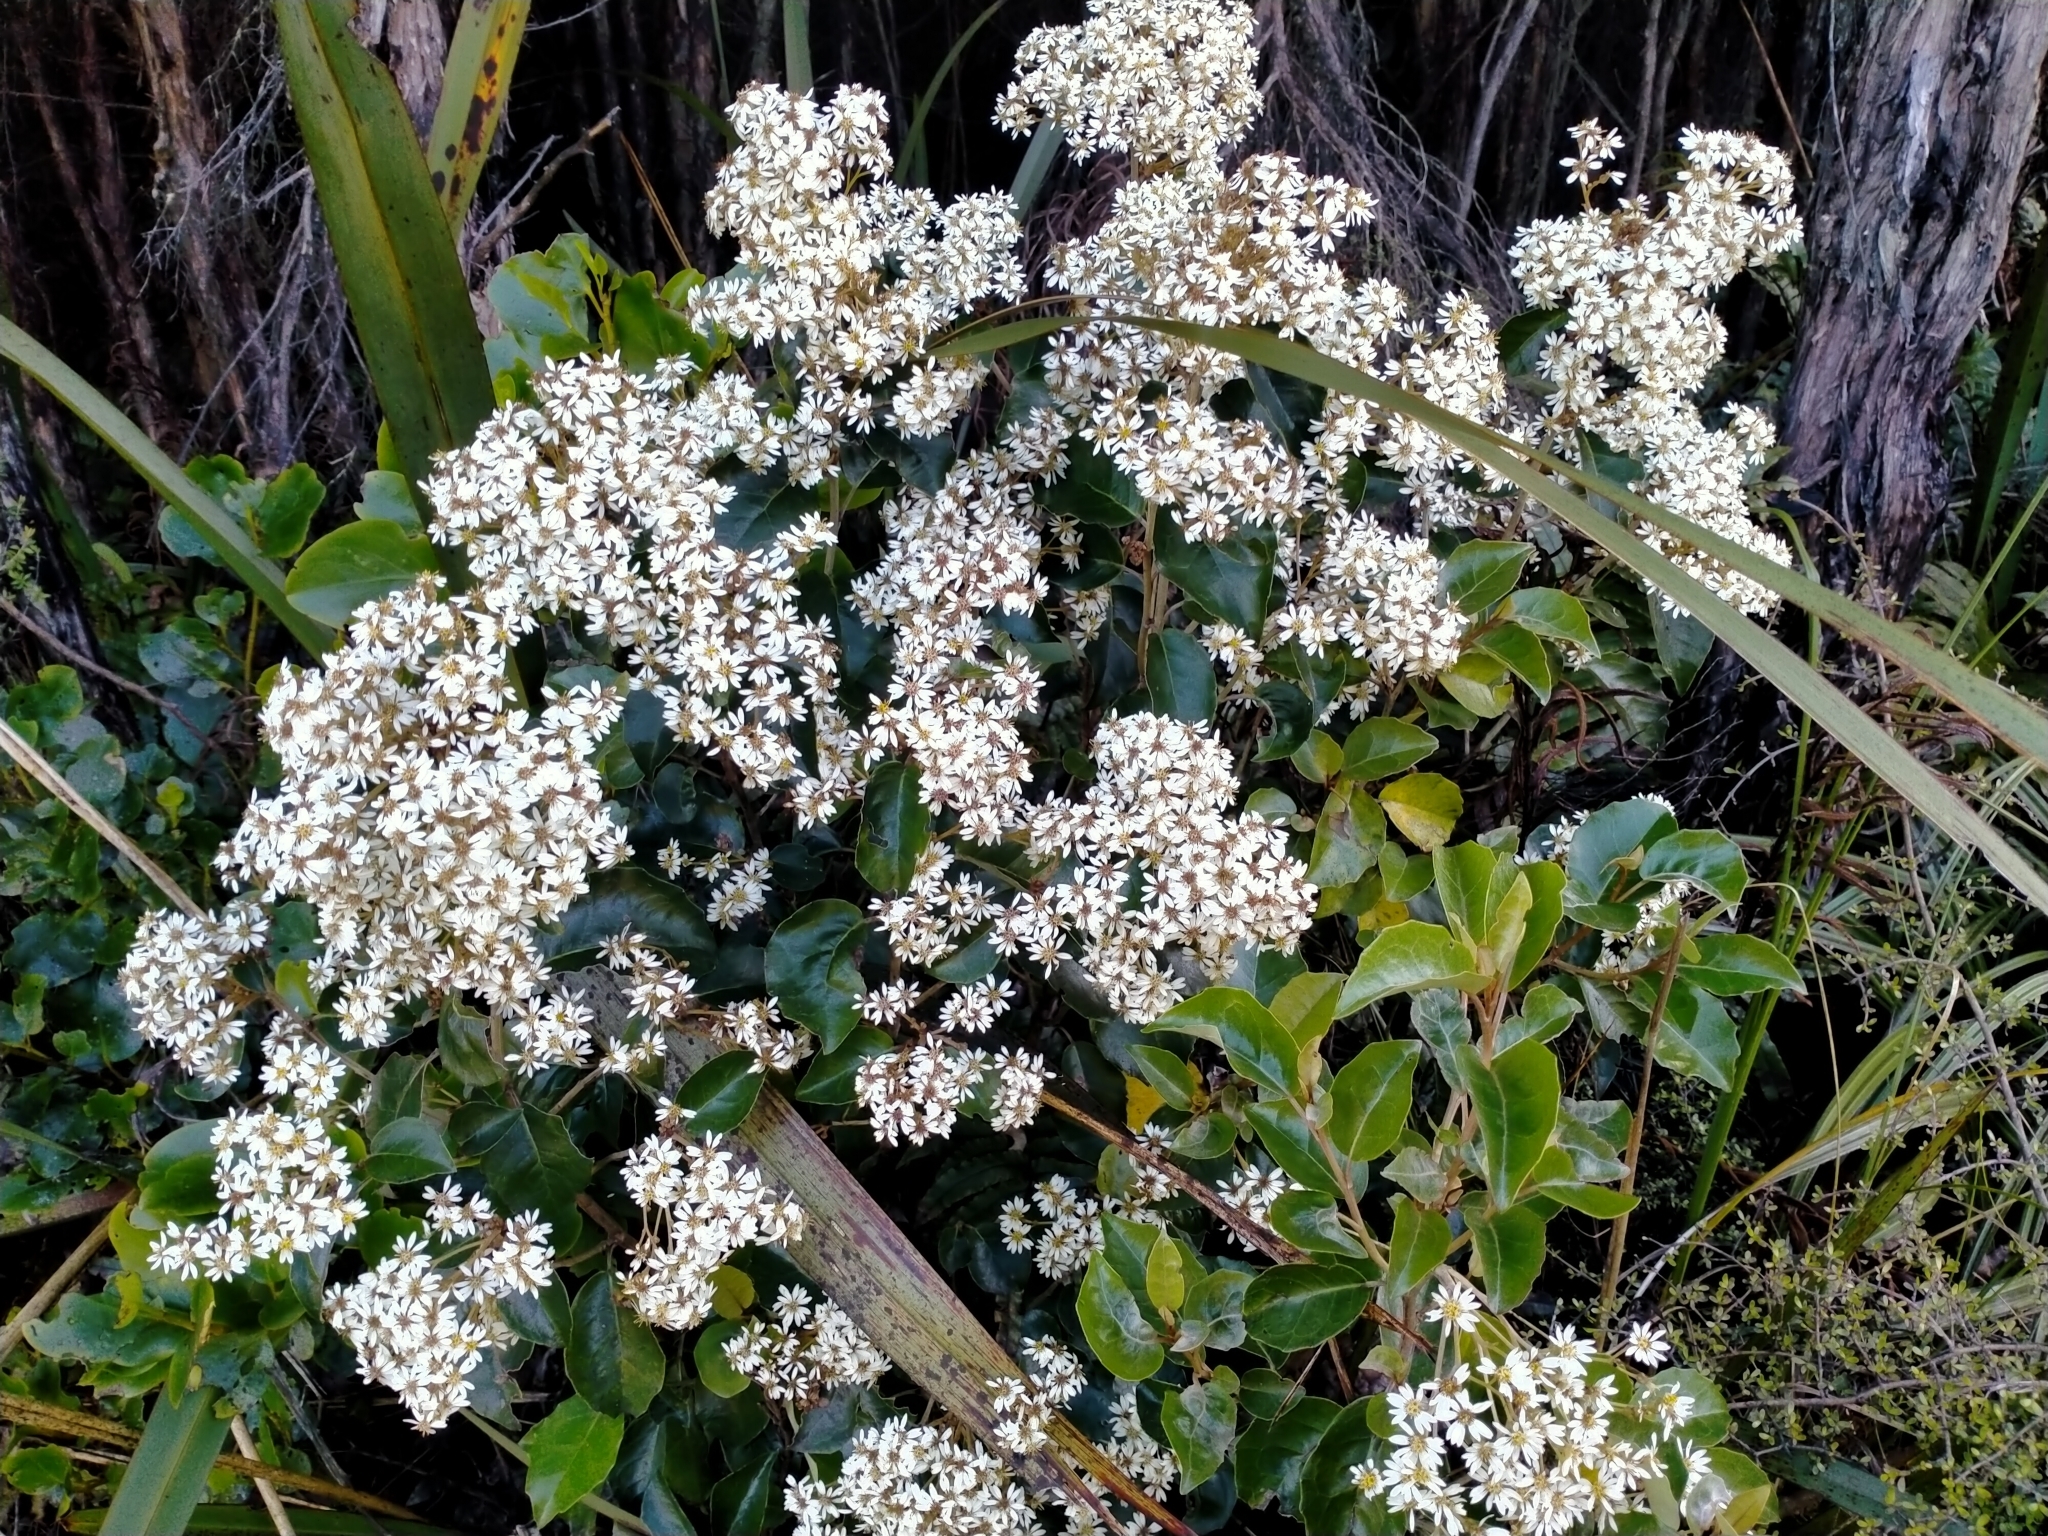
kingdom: Plantae
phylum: Tracheophyta
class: Magnoliopsida
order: Asterales
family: Asteraceae
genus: Olearia
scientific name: Olearia arborescens
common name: Glossy tree daisy
